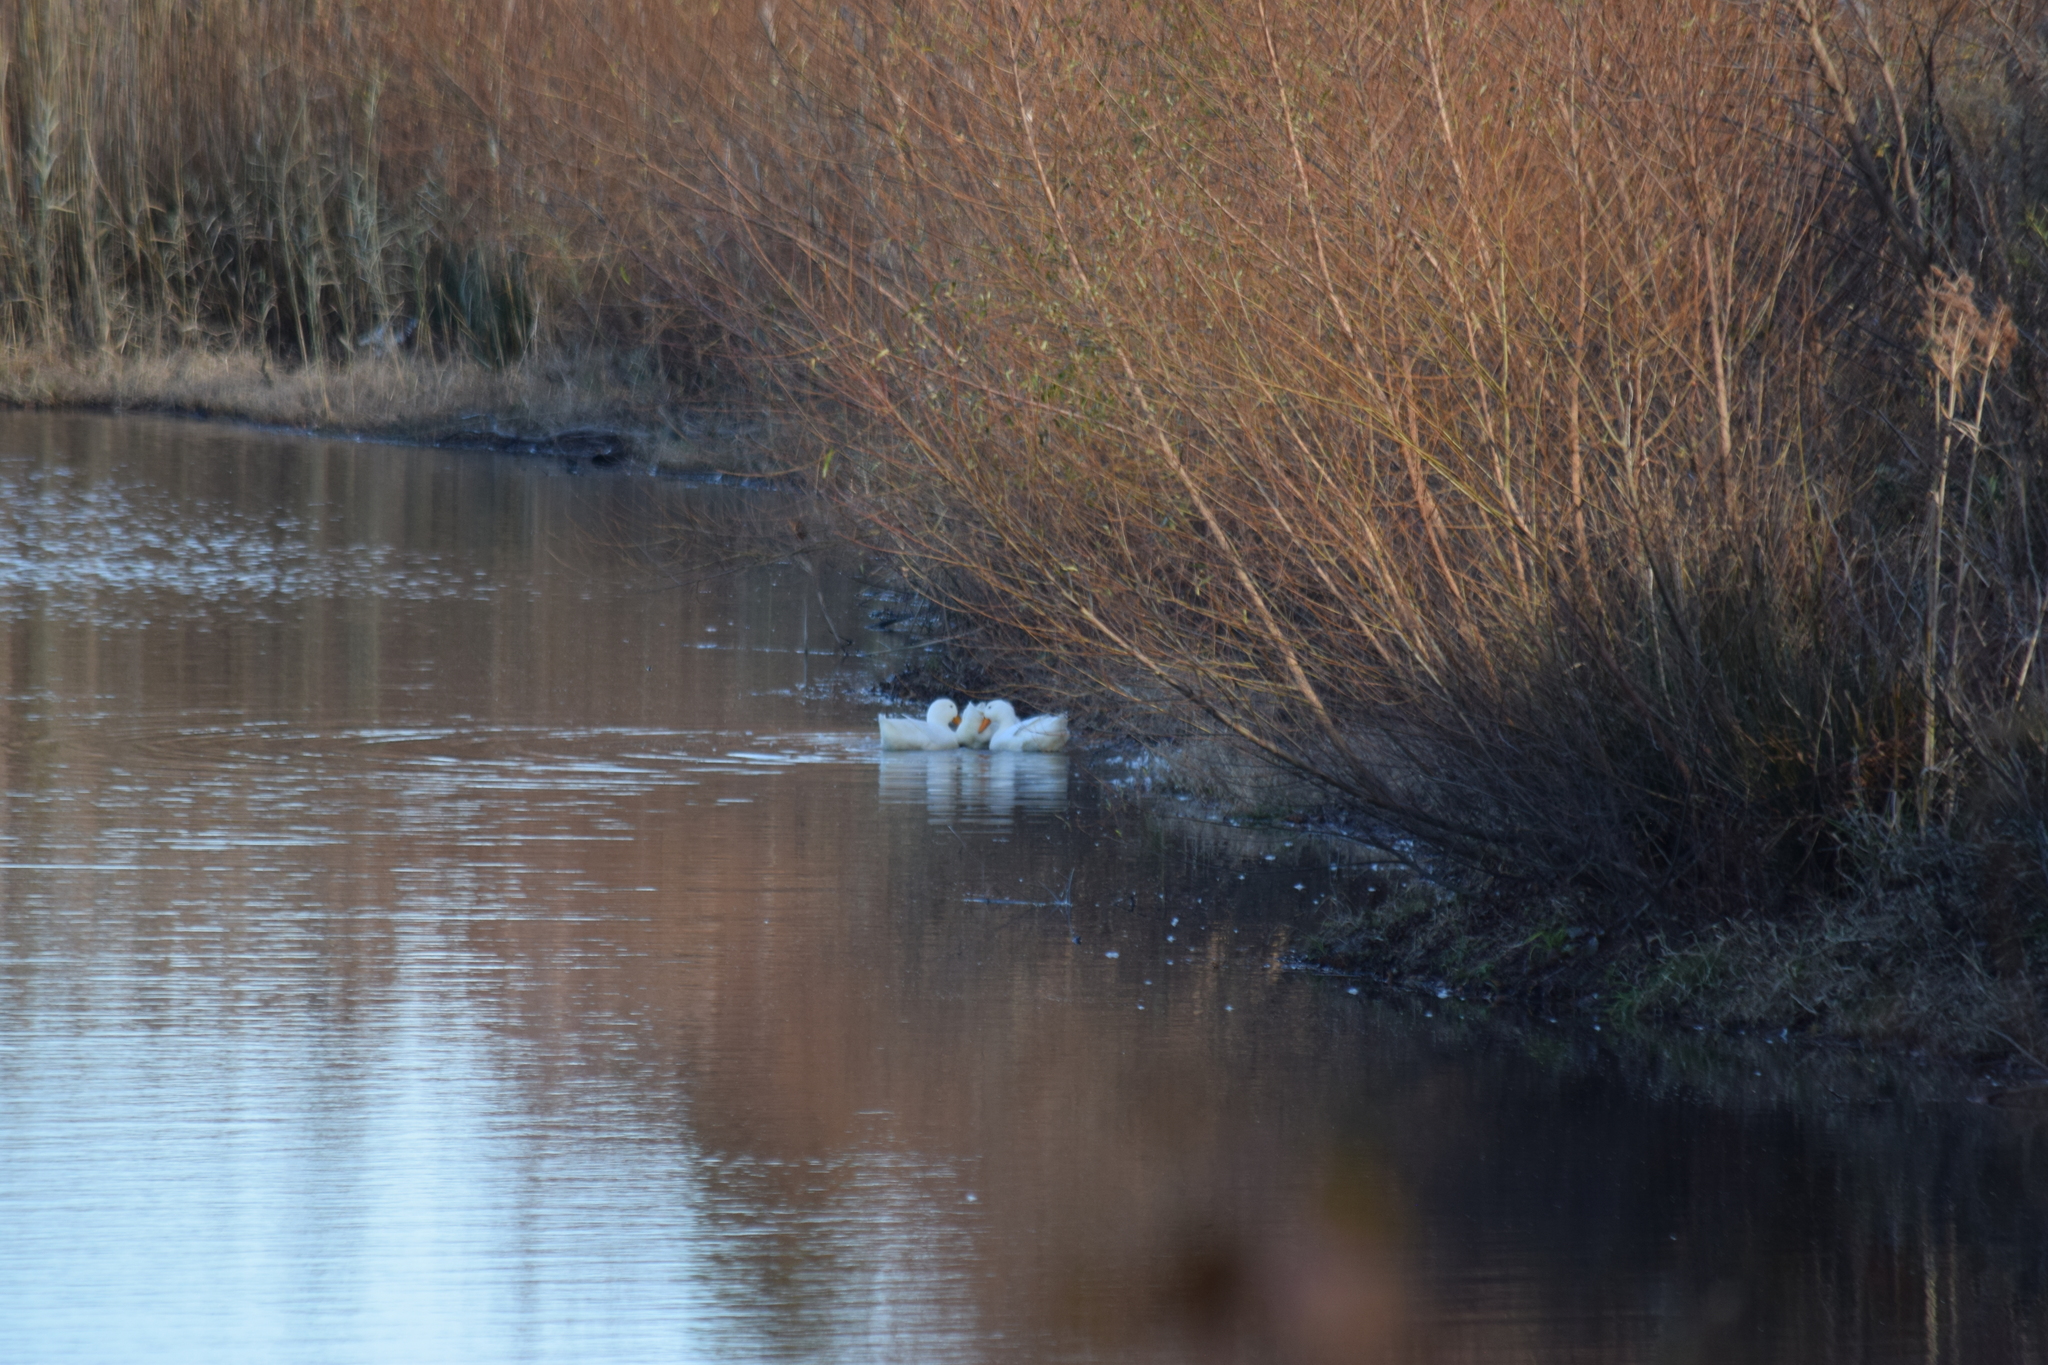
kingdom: Animalia
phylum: Chordata
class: Aves
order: Anseriformes
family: Anatidae
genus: Anas
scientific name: Anas platyrhynchos
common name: Mallard
